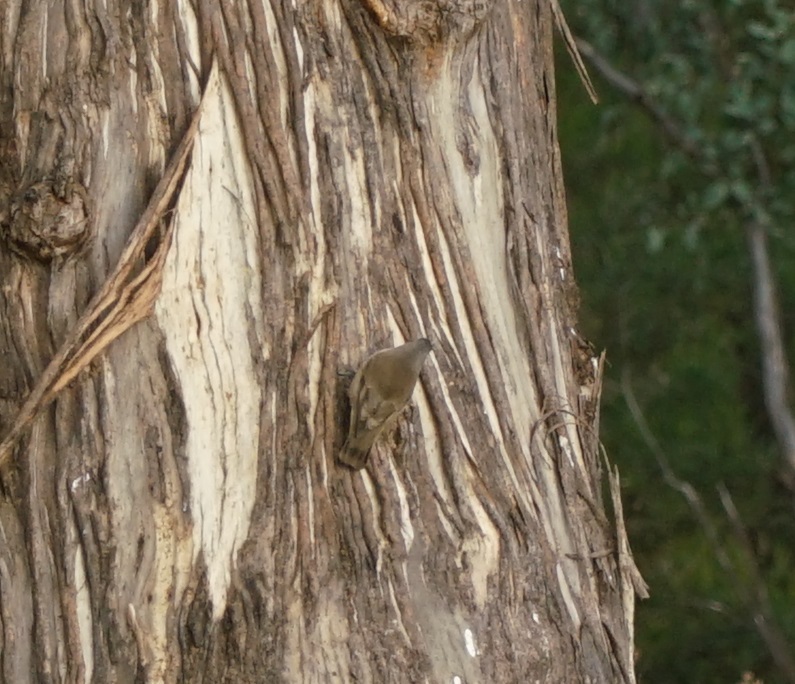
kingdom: Animalia
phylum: Chordata
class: Aves
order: Passeriformes
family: Climacteridae
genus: Climacteris
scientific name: Climacteris picumnus
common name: Brown treecreeper
